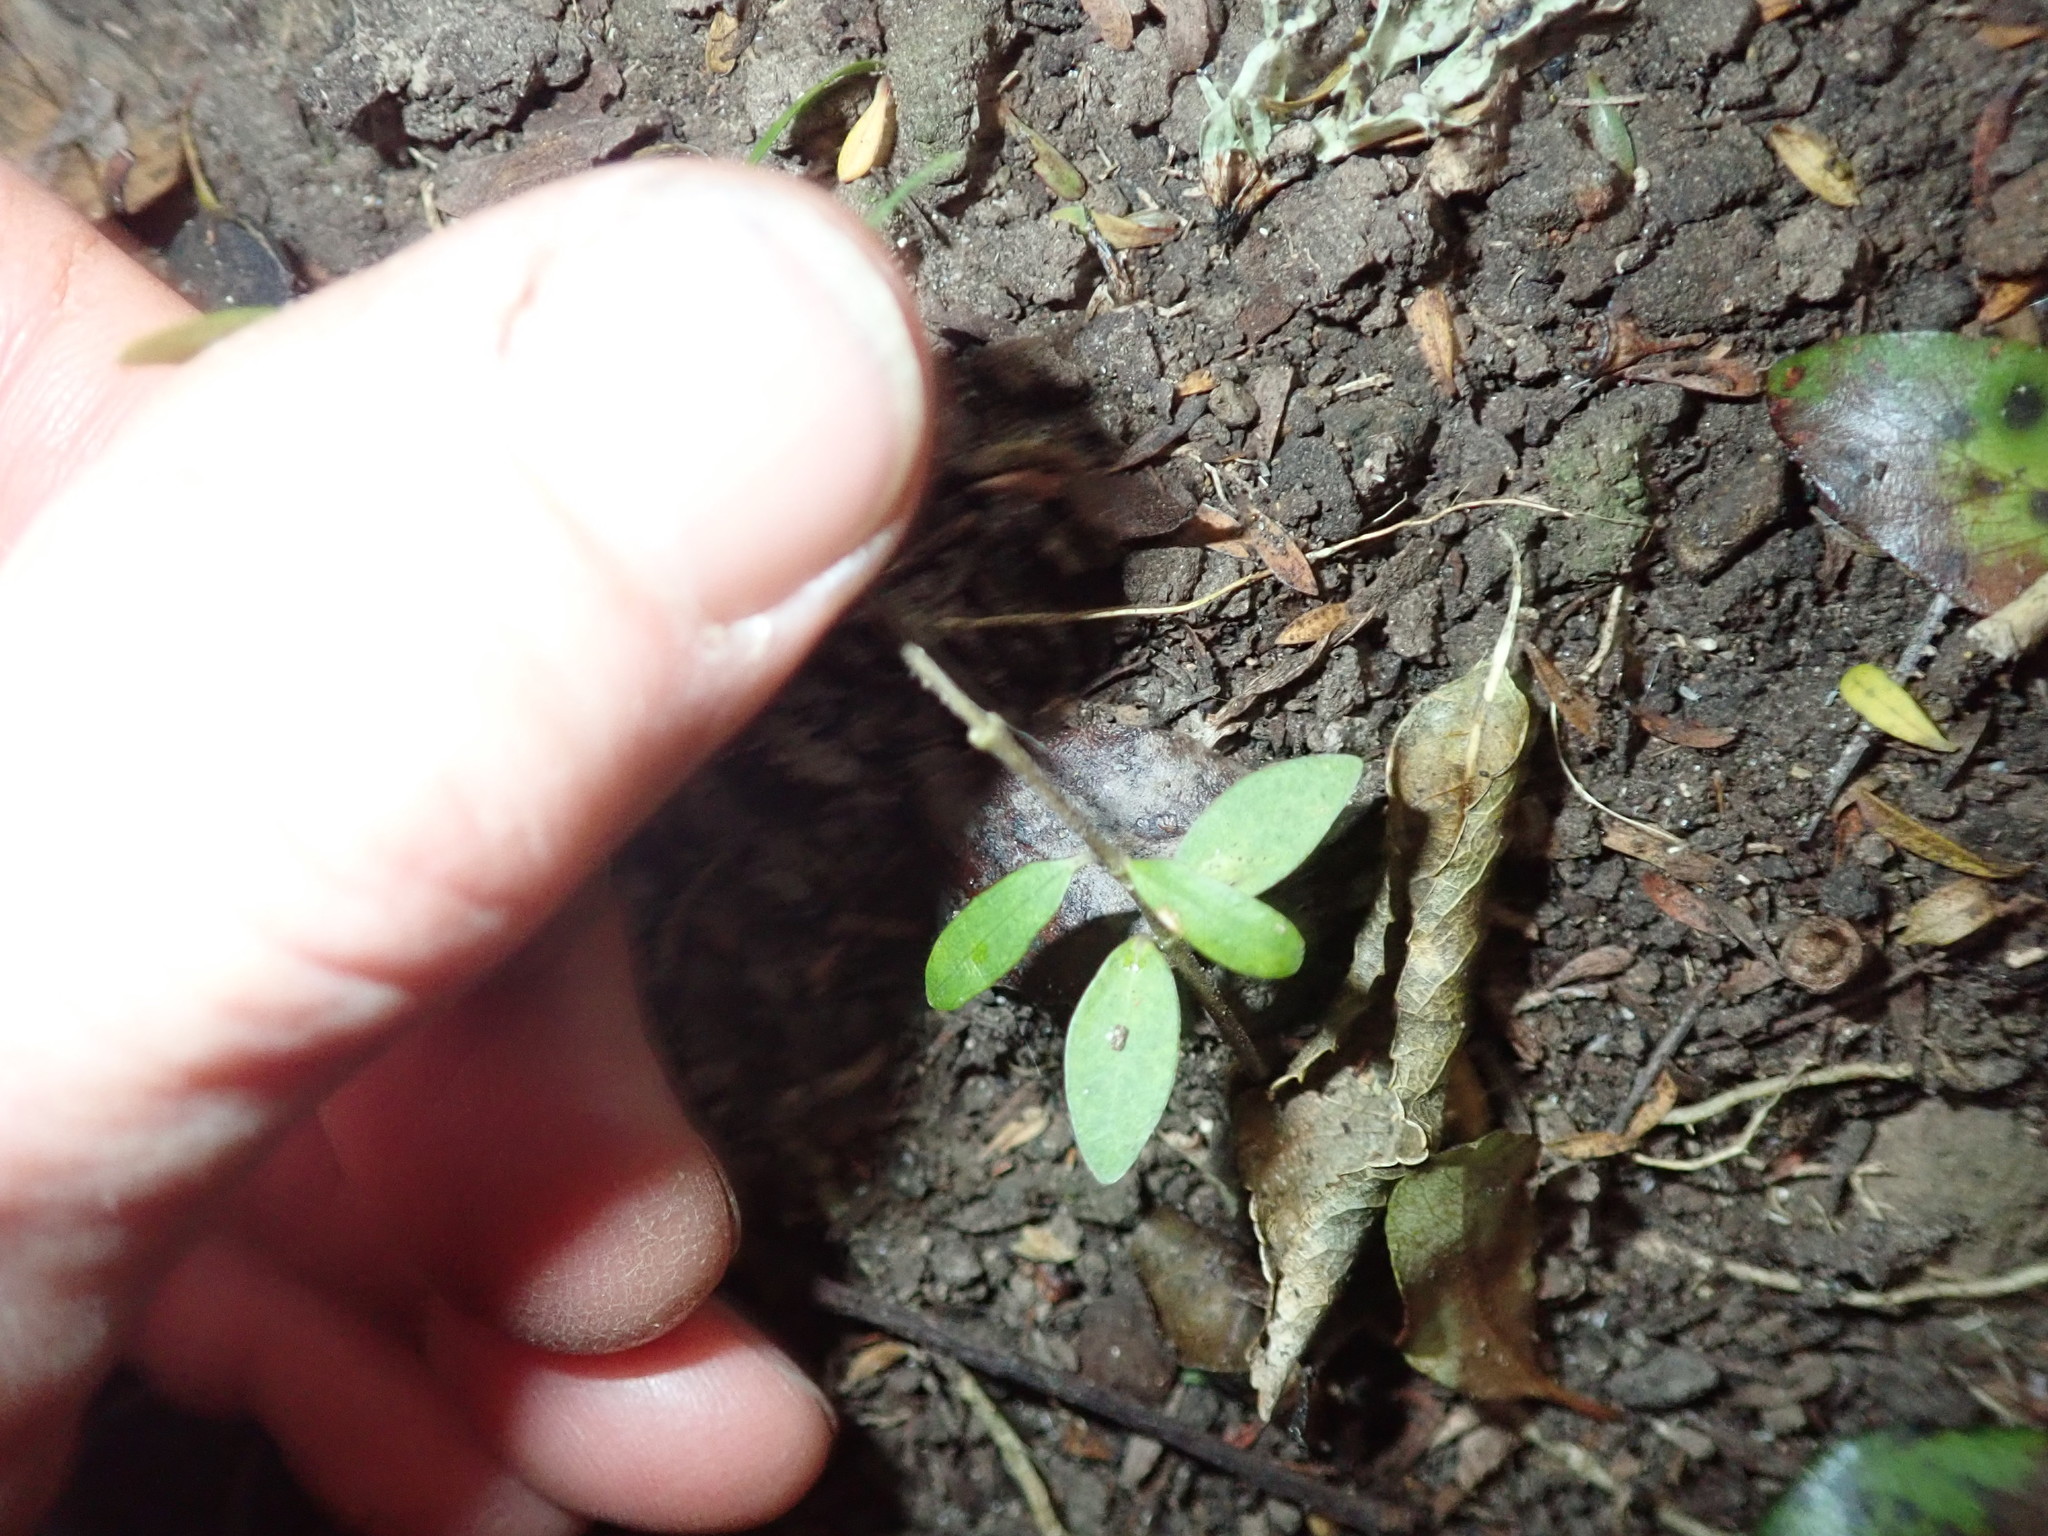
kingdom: Plantae
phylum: Tracheophyta
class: Magnoliopsida
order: Gentianales
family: Apocynaceae
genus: Parsonsia
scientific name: Parsonsia heterophylla
